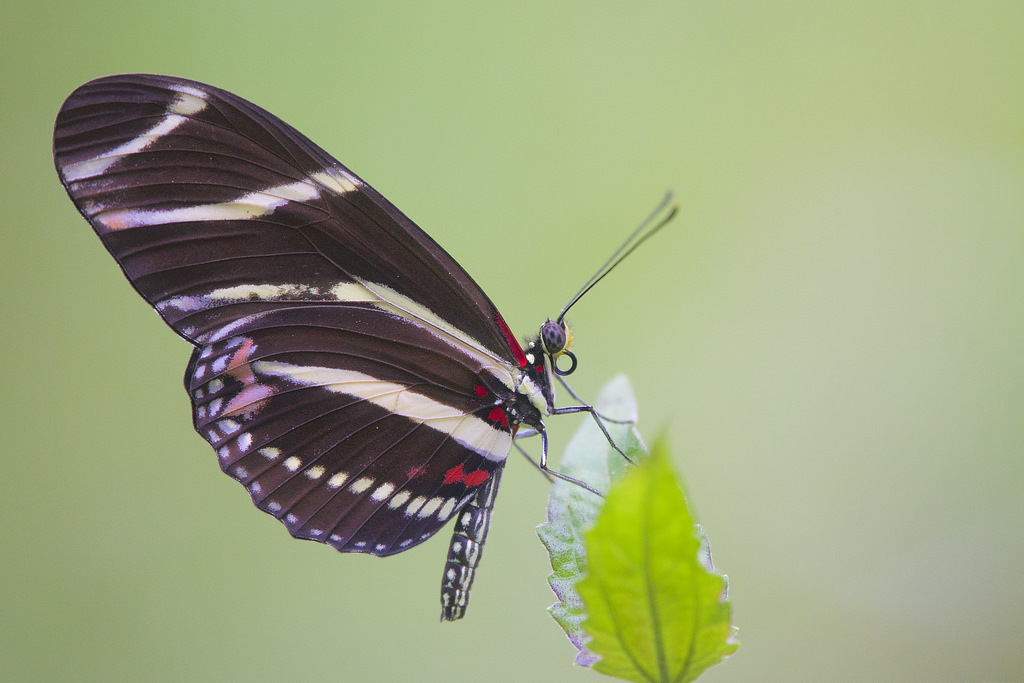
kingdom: Animalia
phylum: Arthropoda
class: Insecta
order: Lepidoptera
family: Nymphalidae
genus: Heliconius
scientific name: Heliconius charithonia
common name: Zebra long wing
